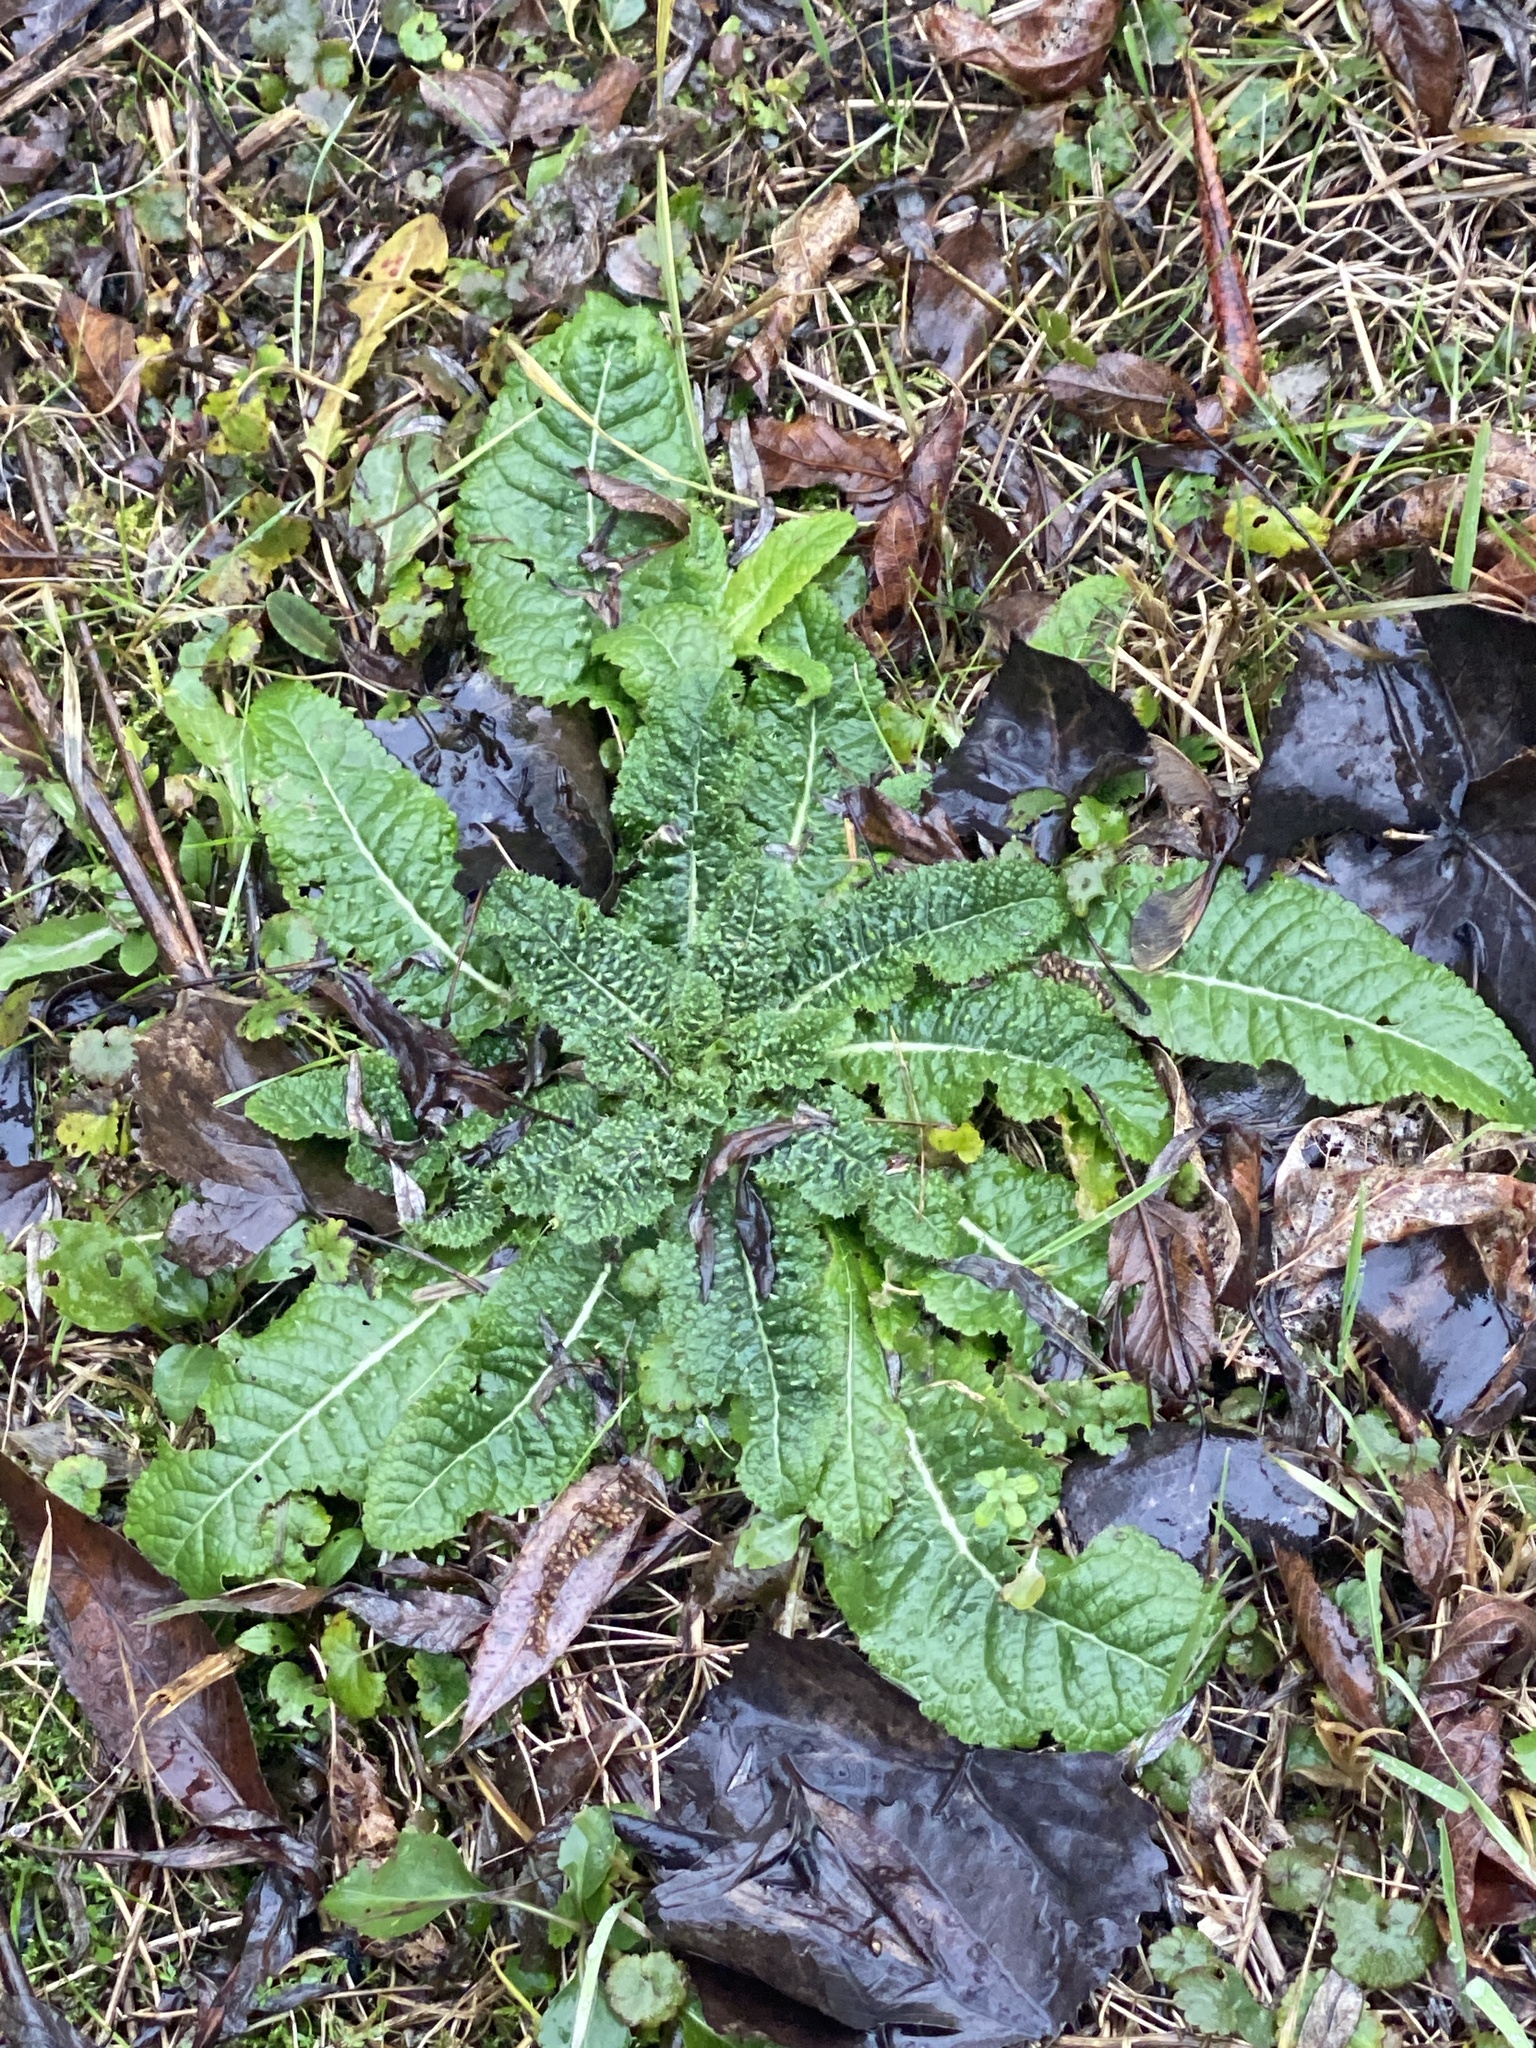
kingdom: Plantae
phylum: Tracheophyta
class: Magnoliopsida
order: Dipsacales
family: Caprifoliaceae
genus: Dipsacus
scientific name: Dipsacus fullonum
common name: Teasel
